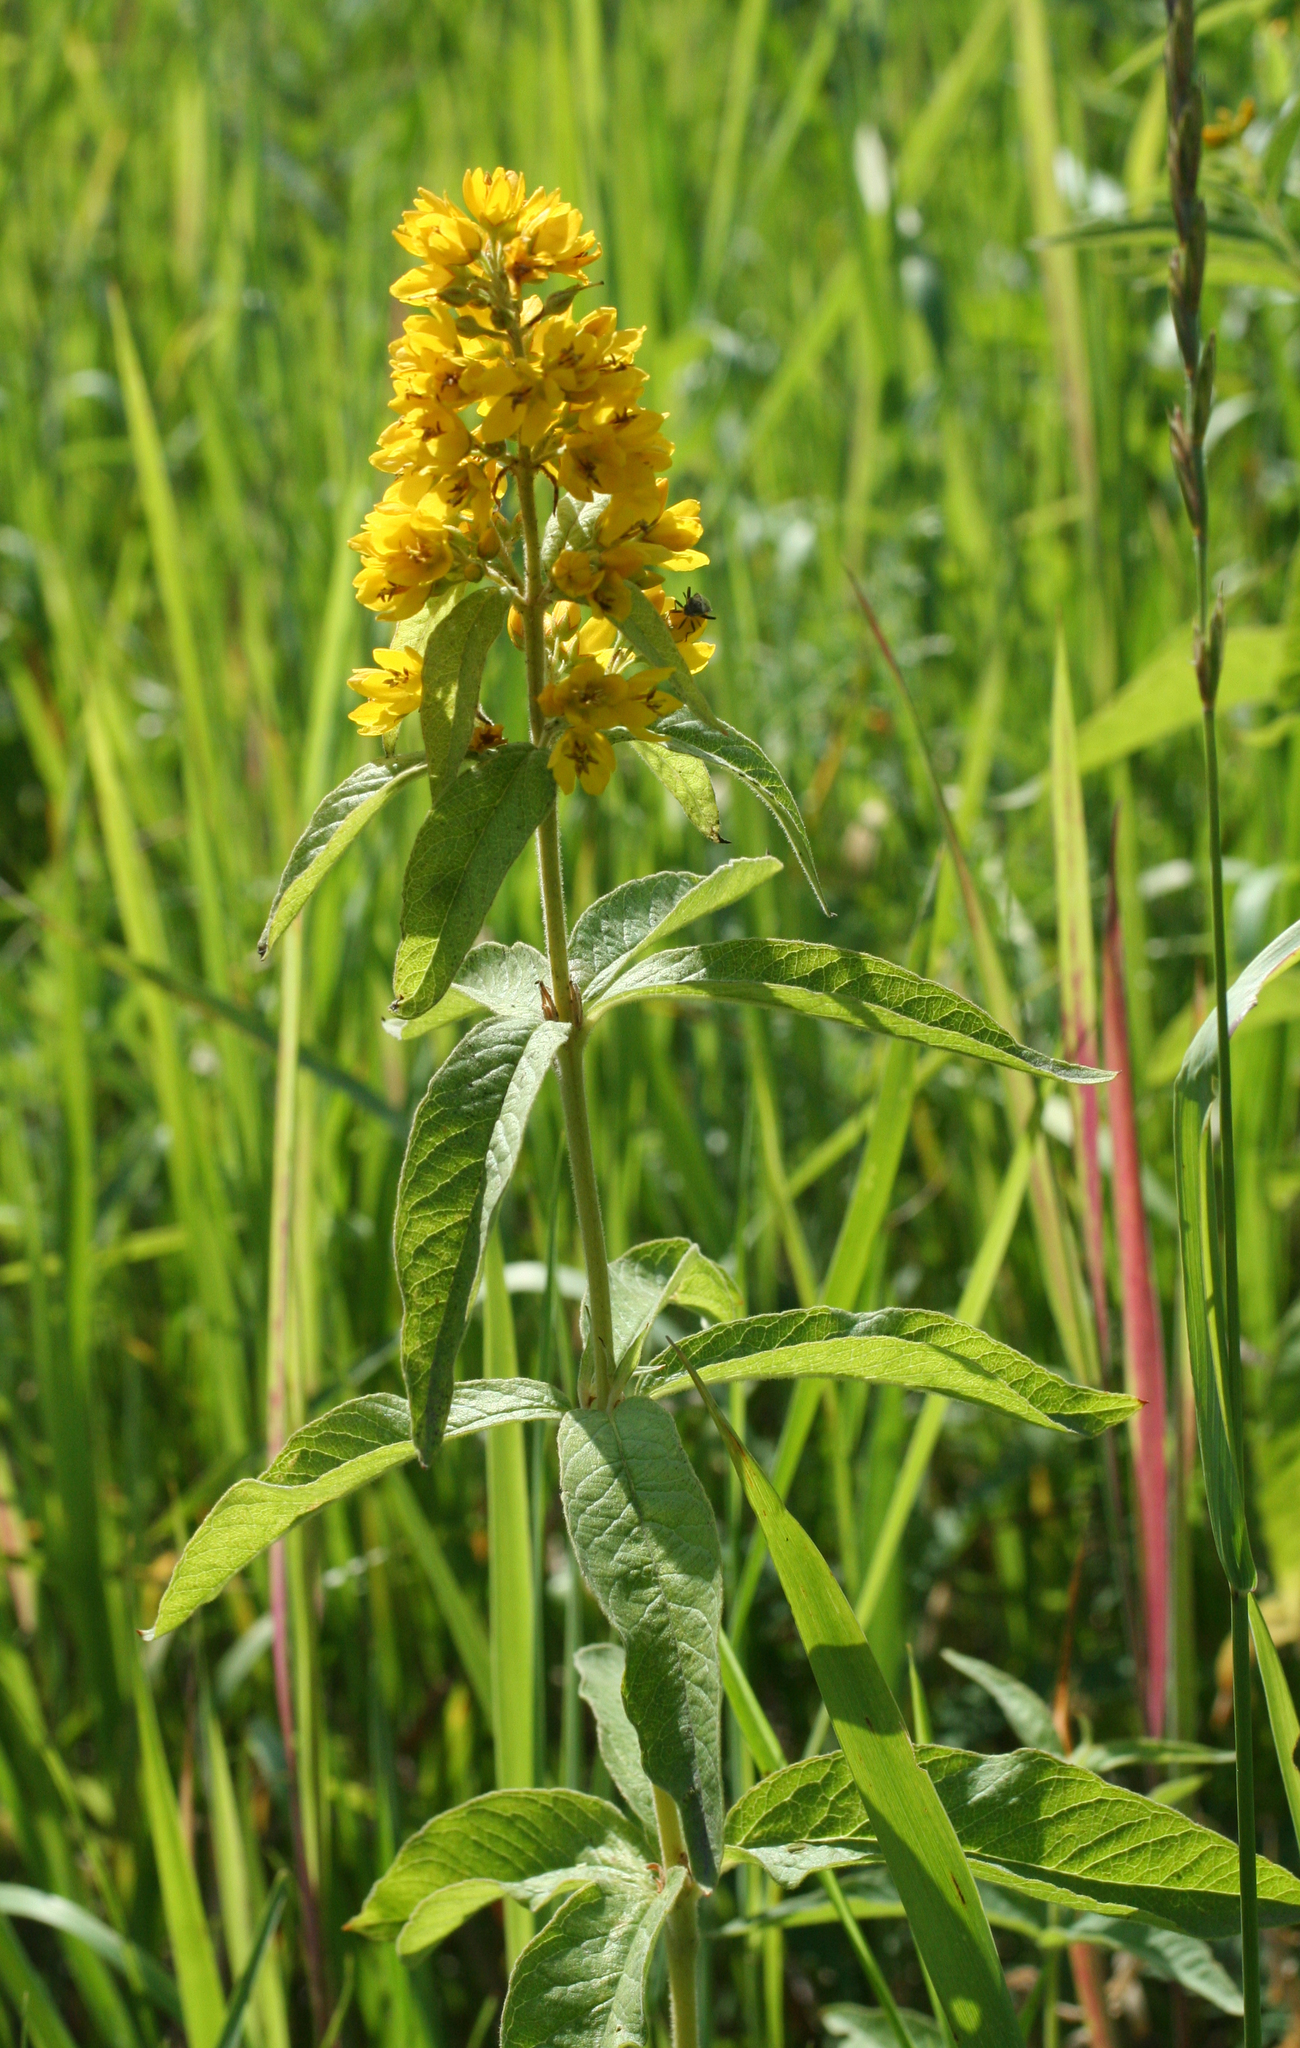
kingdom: Plantae
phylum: Tracheophyta
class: Magnoliopsida
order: Ericales
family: Primulaceae
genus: Lysimachia
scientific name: Lysimachia vulgaris
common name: Yellow loosestrife
